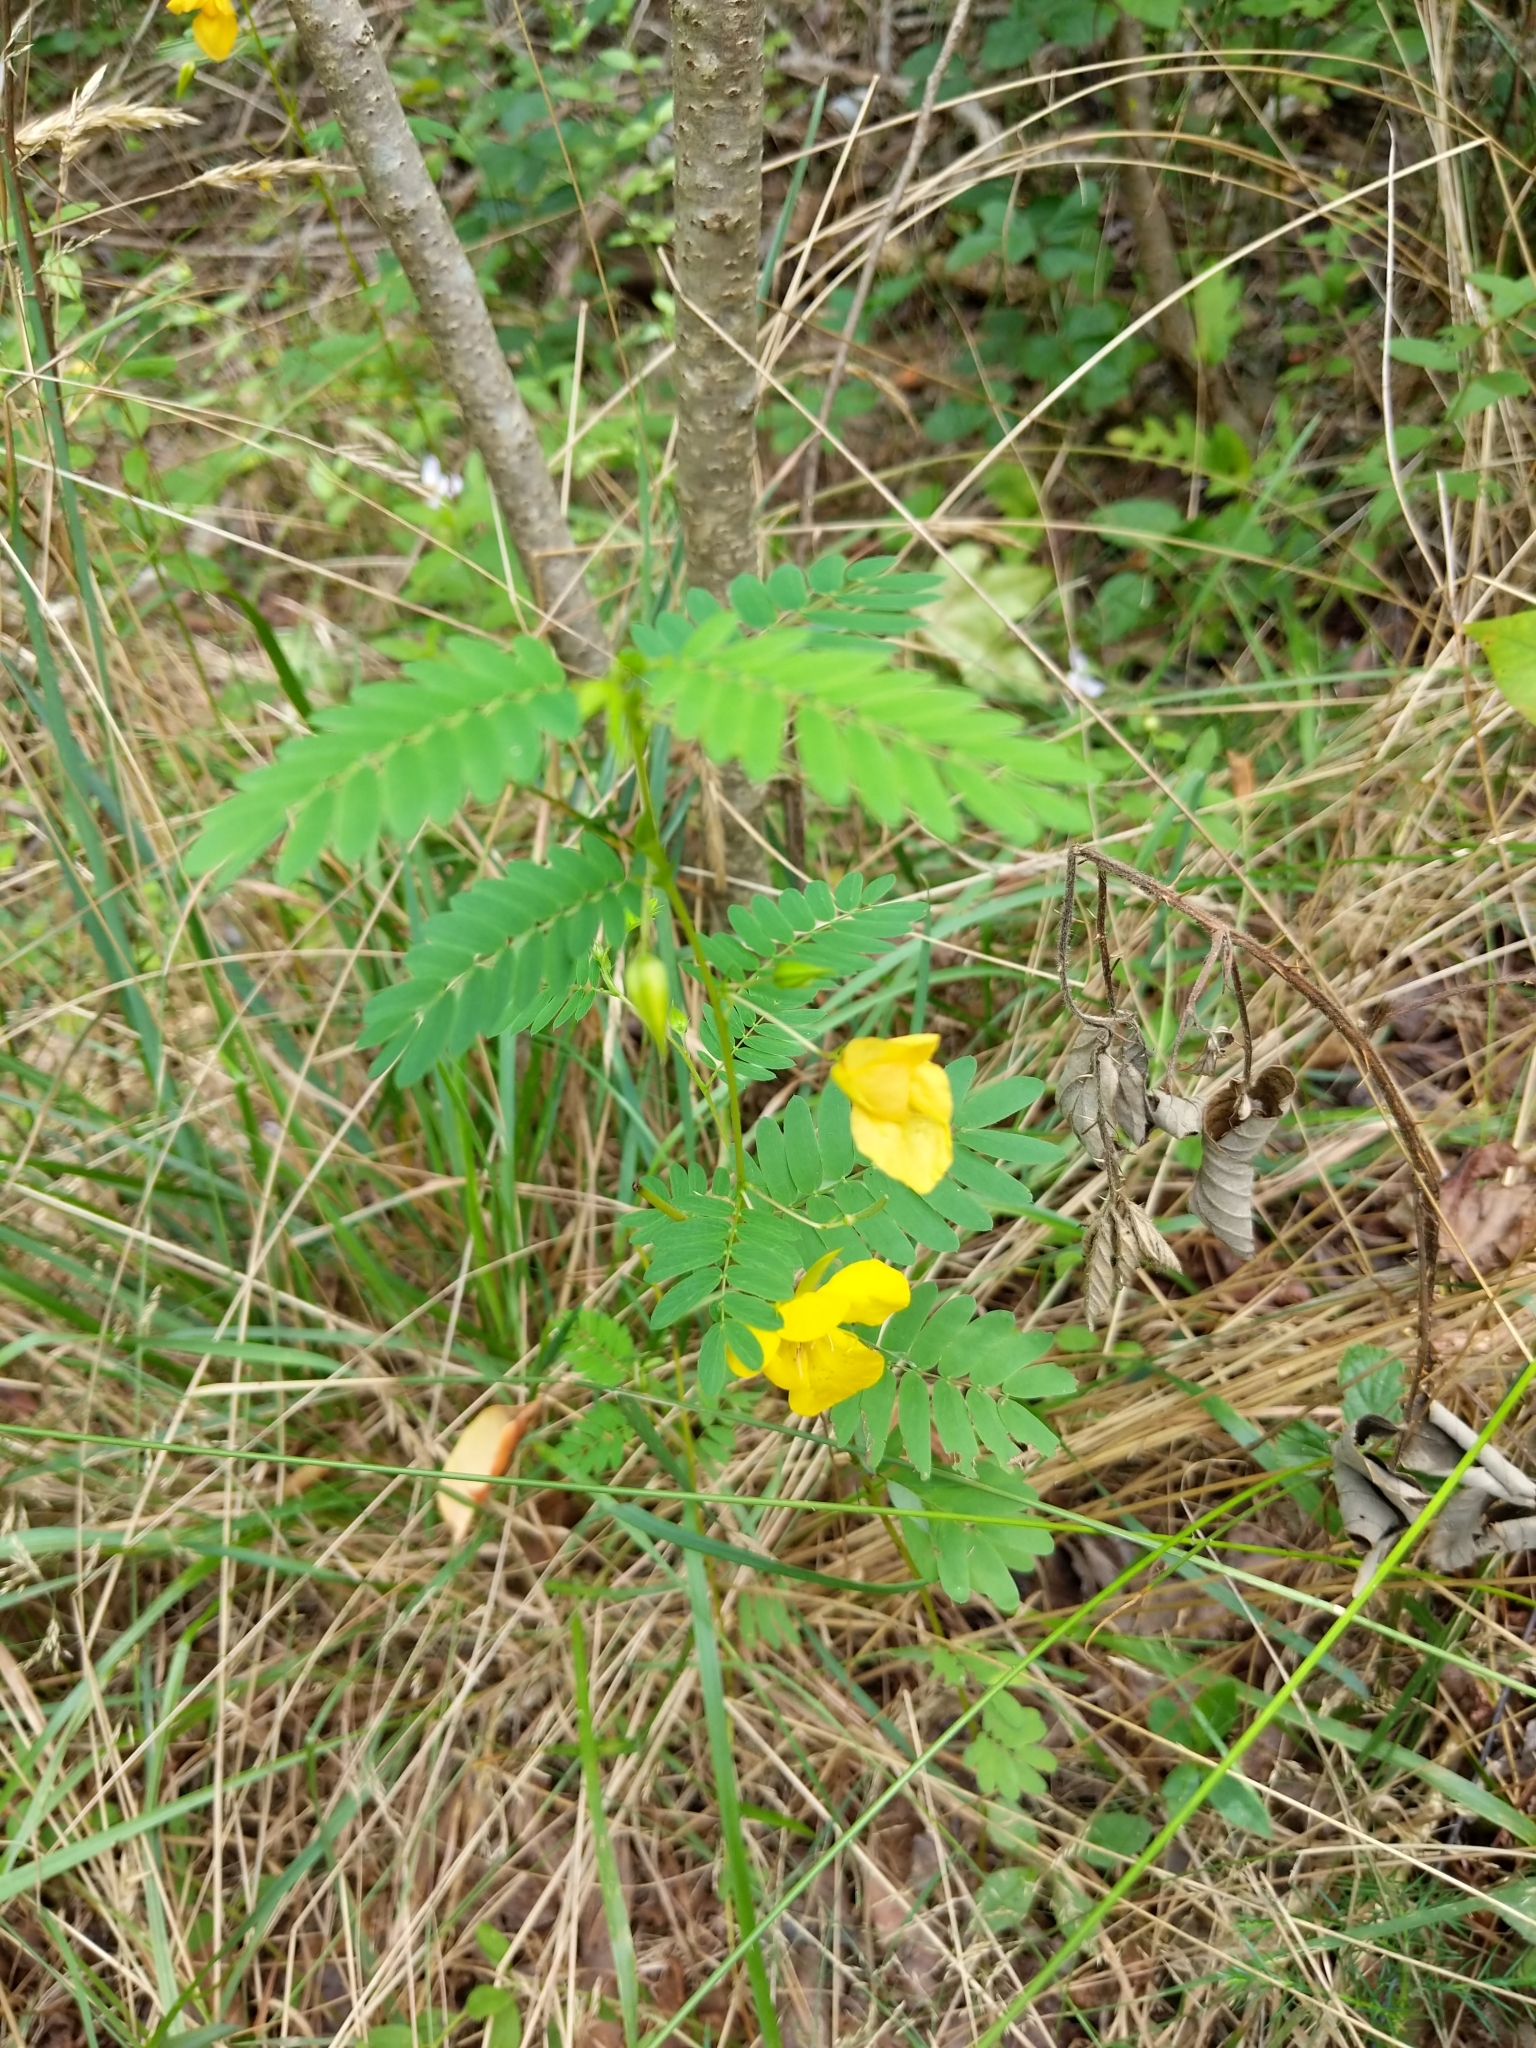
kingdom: Plantae
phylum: Tracheophyta
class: Magnoliopsida
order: Fabales
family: Fabaceae
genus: Chamaecrista
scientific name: Chamaecrista fasciculata
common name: Golden cassia
